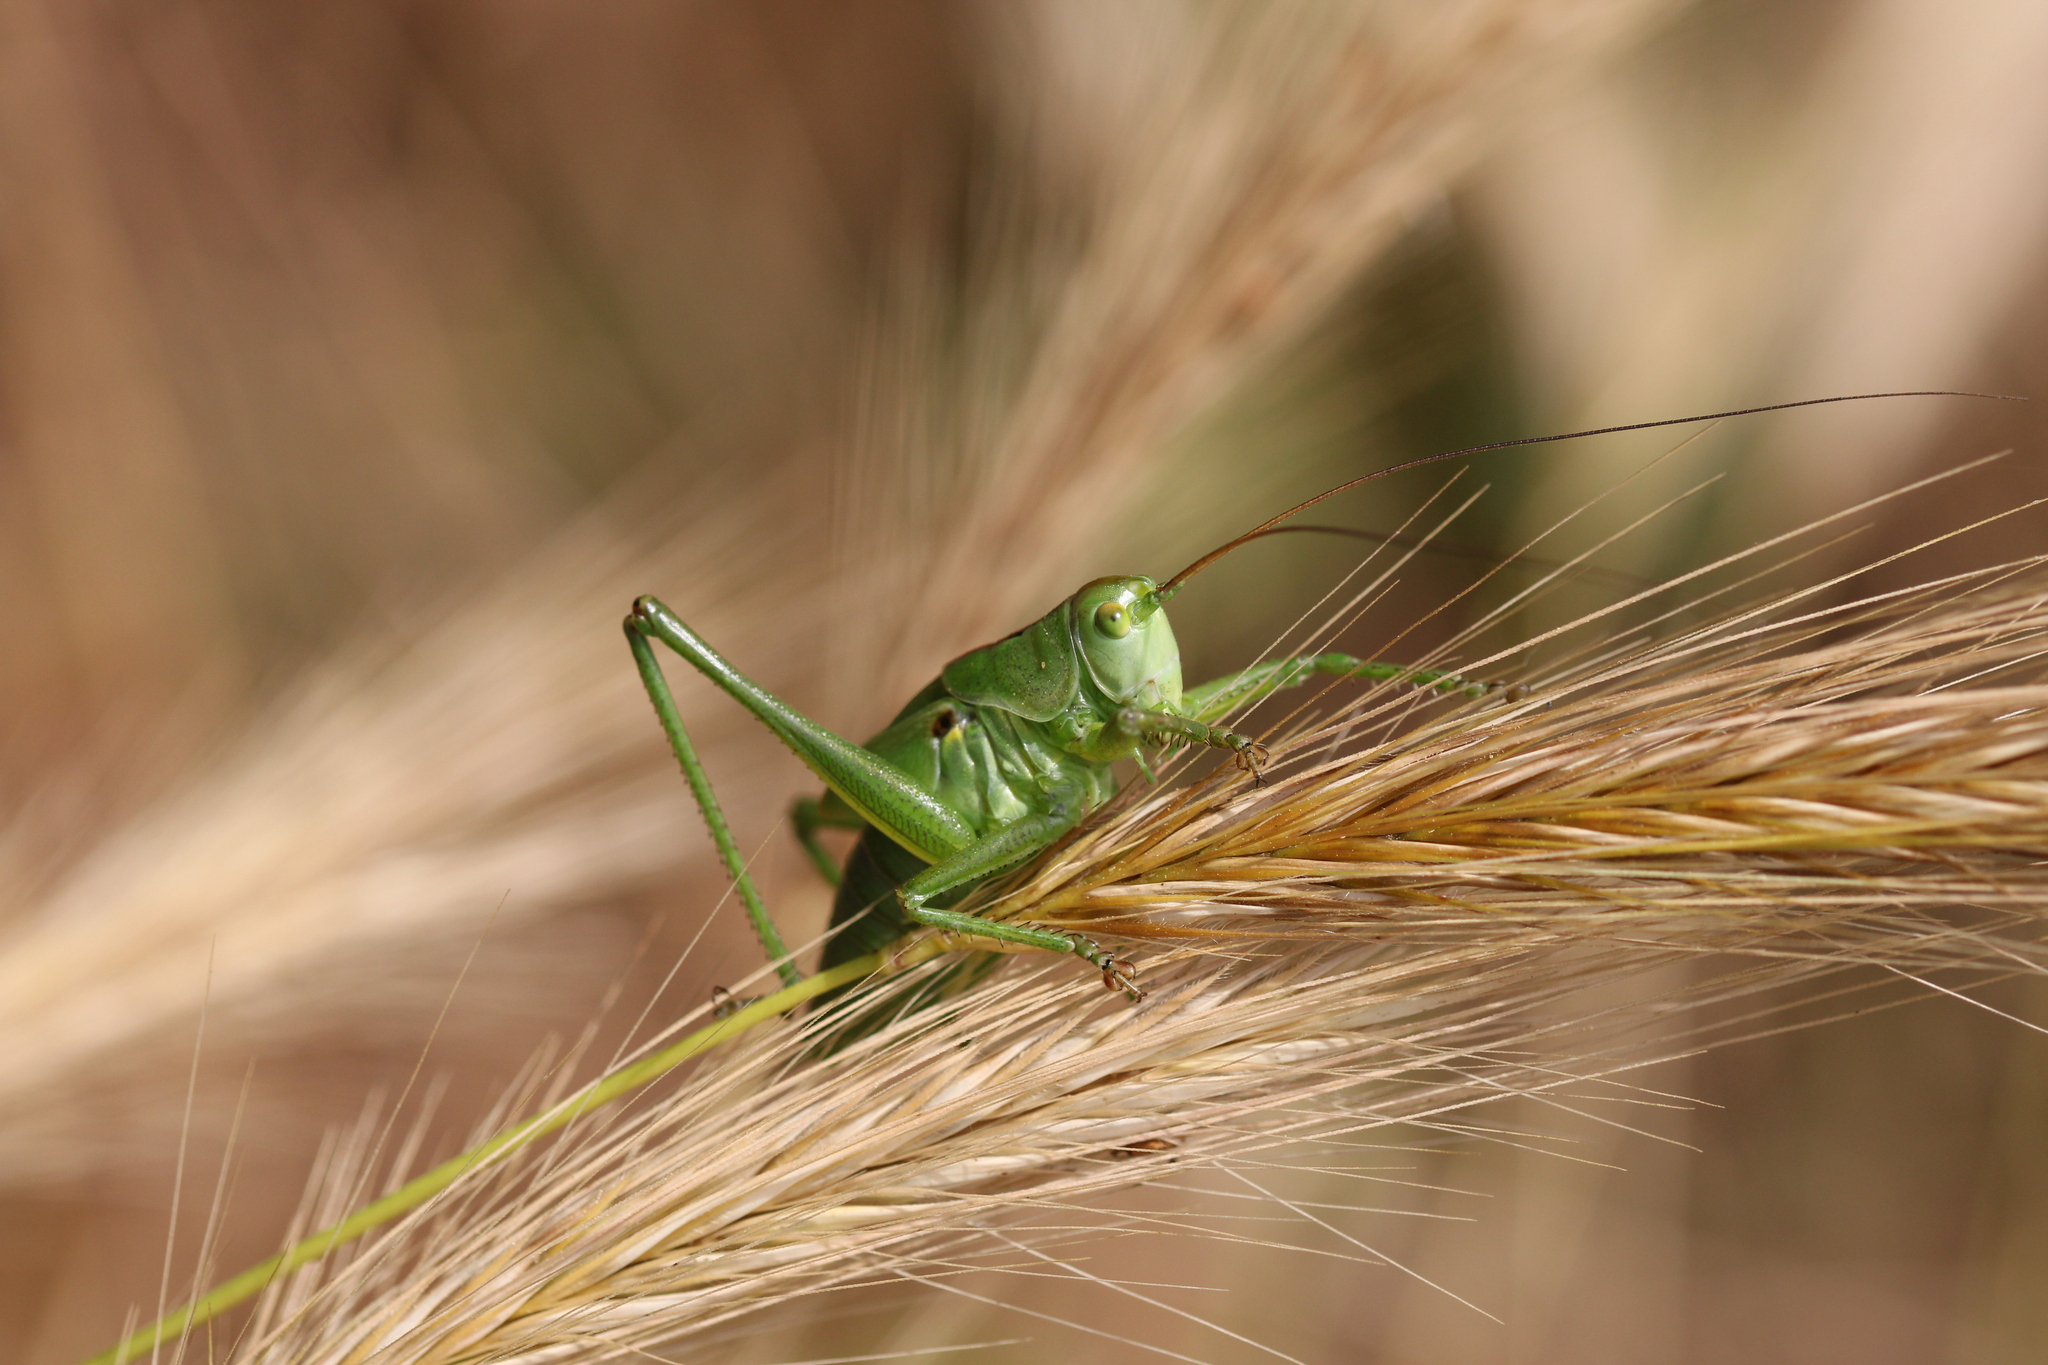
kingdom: Animalia
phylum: Arthropoda
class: Insecta
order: Orthoptera
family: Tettigoniidae
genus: Tettigonia
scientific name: Tettigonia viridissima
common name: Great green bush-cricket
